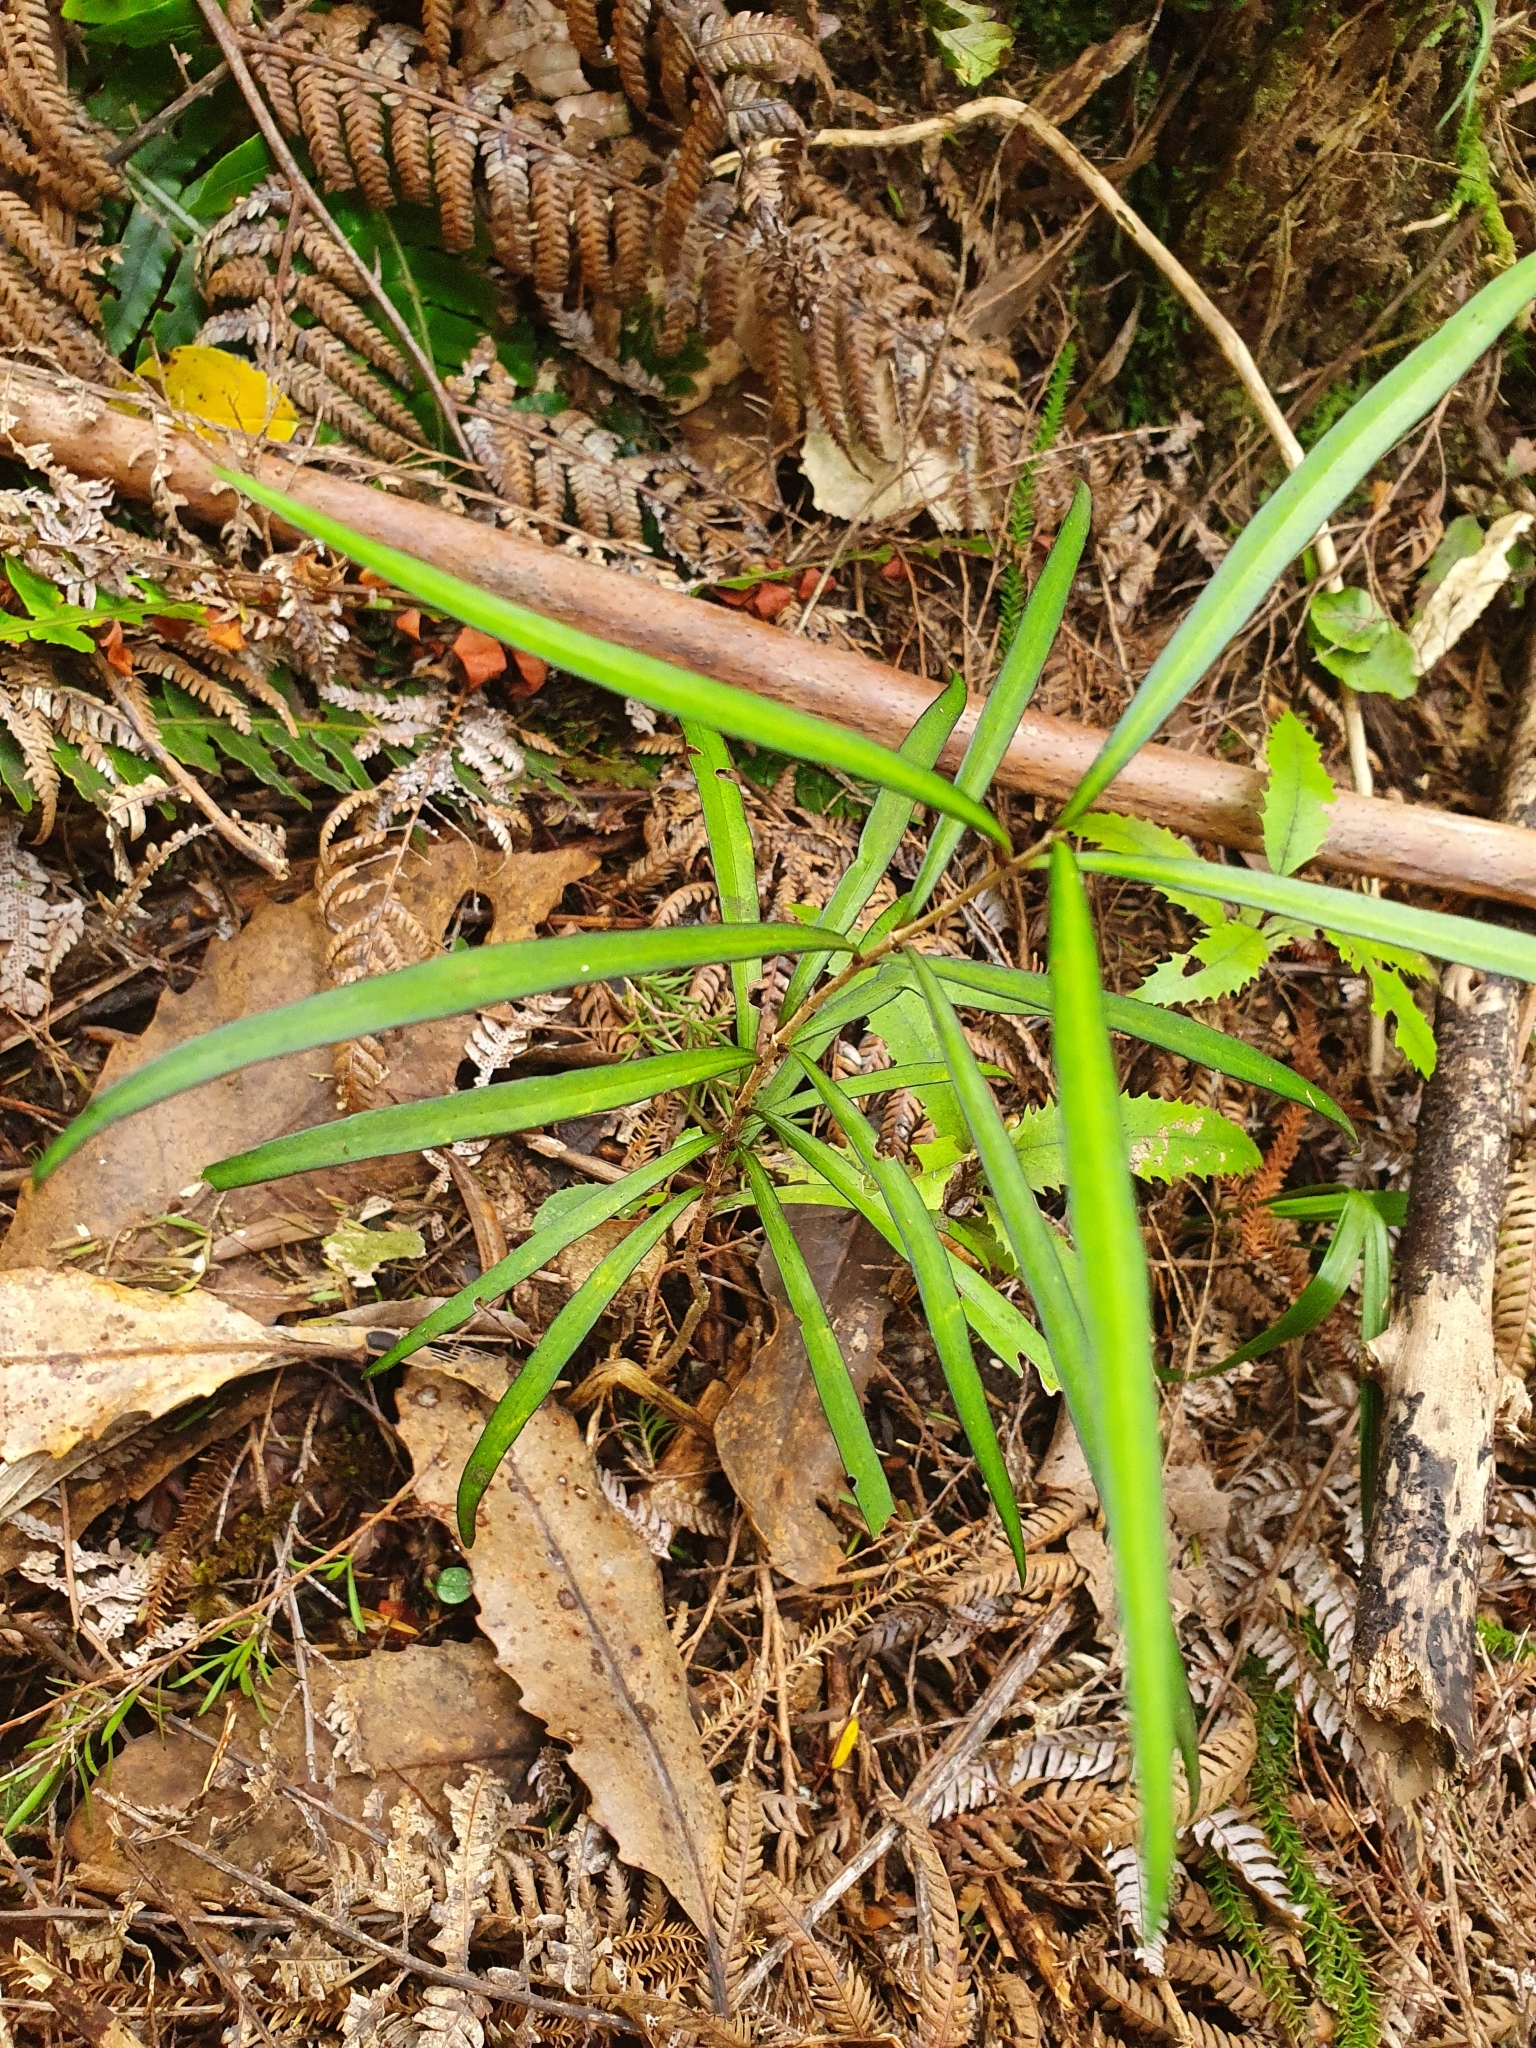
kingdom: Plantae
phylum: Tracheophyta
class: Magnoliopsida
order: Lamiales
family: Oleaceae
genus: Nestegis
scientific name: Nestegis lanceolata
